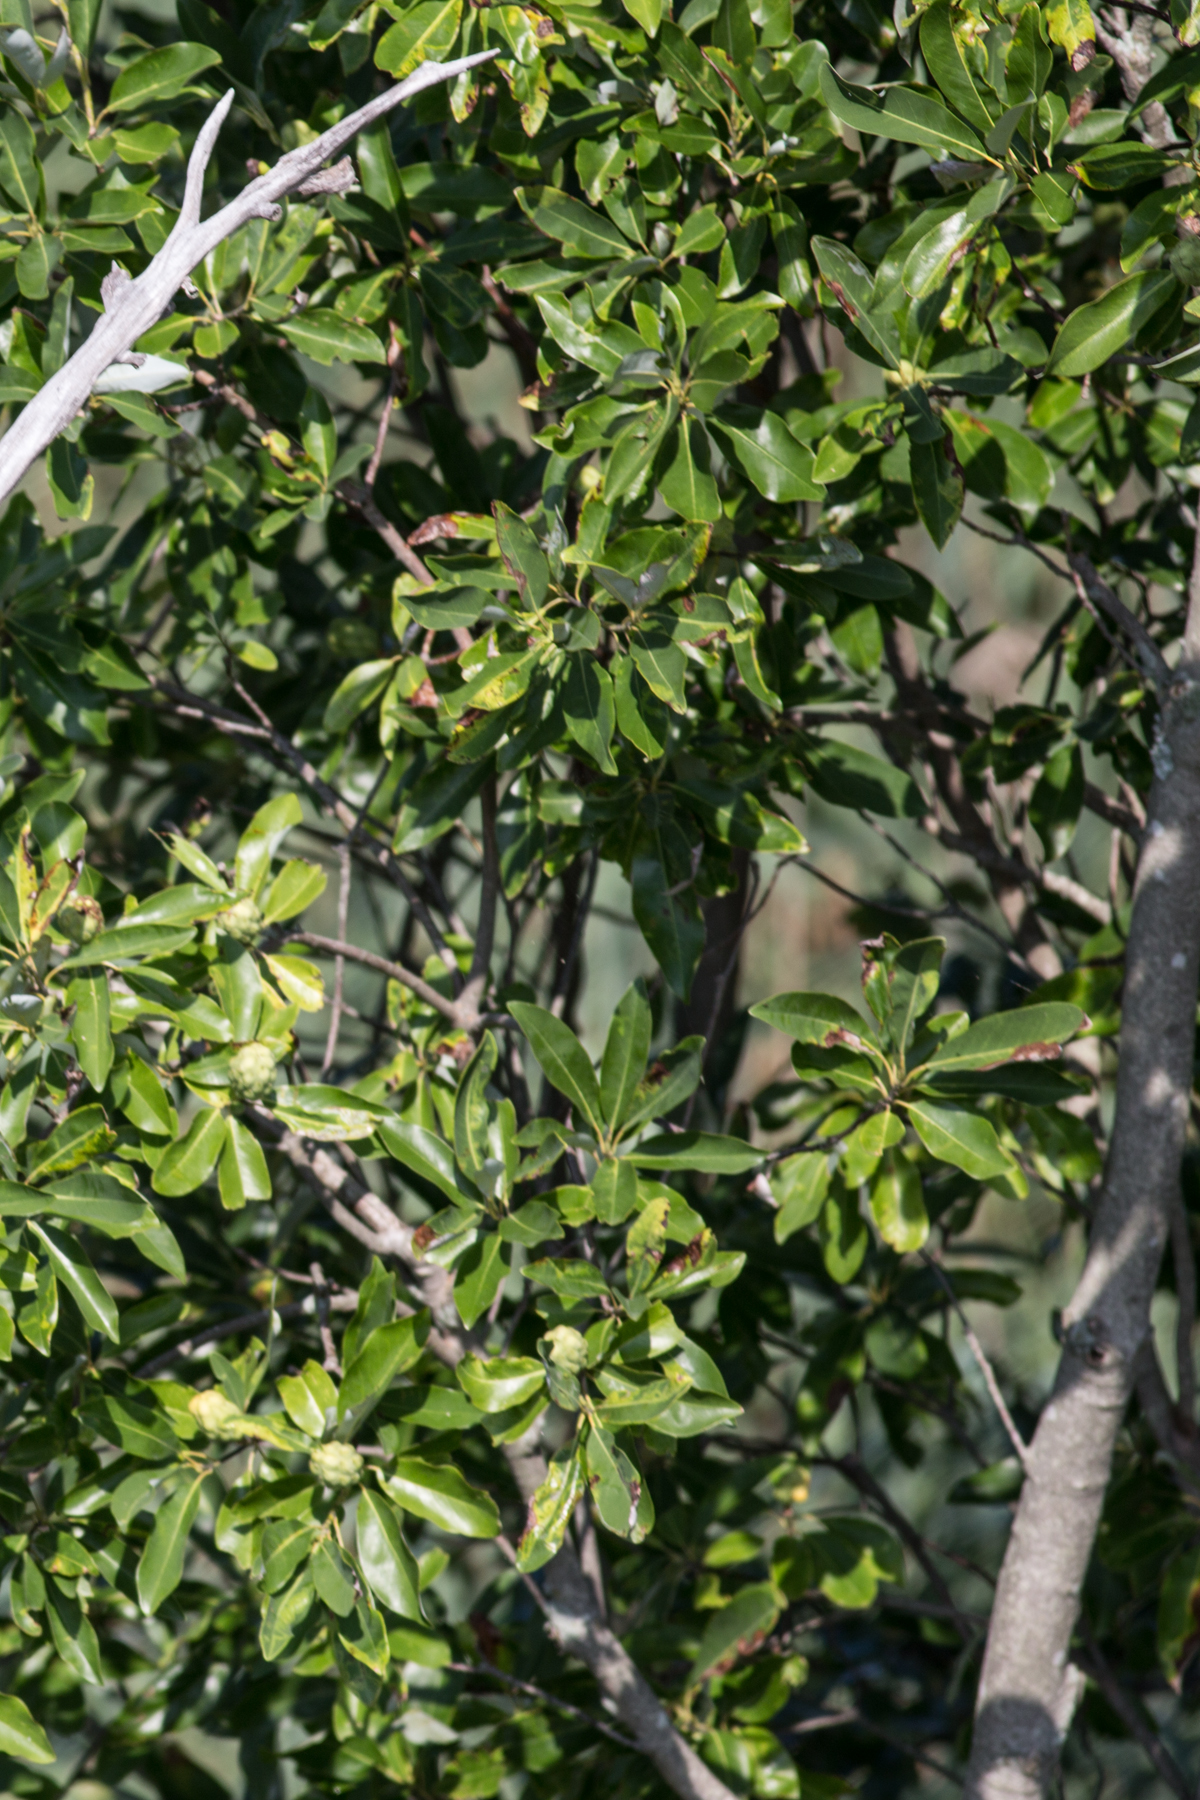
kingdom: Plantae
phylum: Tracheophyta
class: Magnoliopsida
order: Magnoliales
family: Magnoliaceae
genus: Magnolia
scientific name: Magnolia virginiana
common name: Swamp bay
